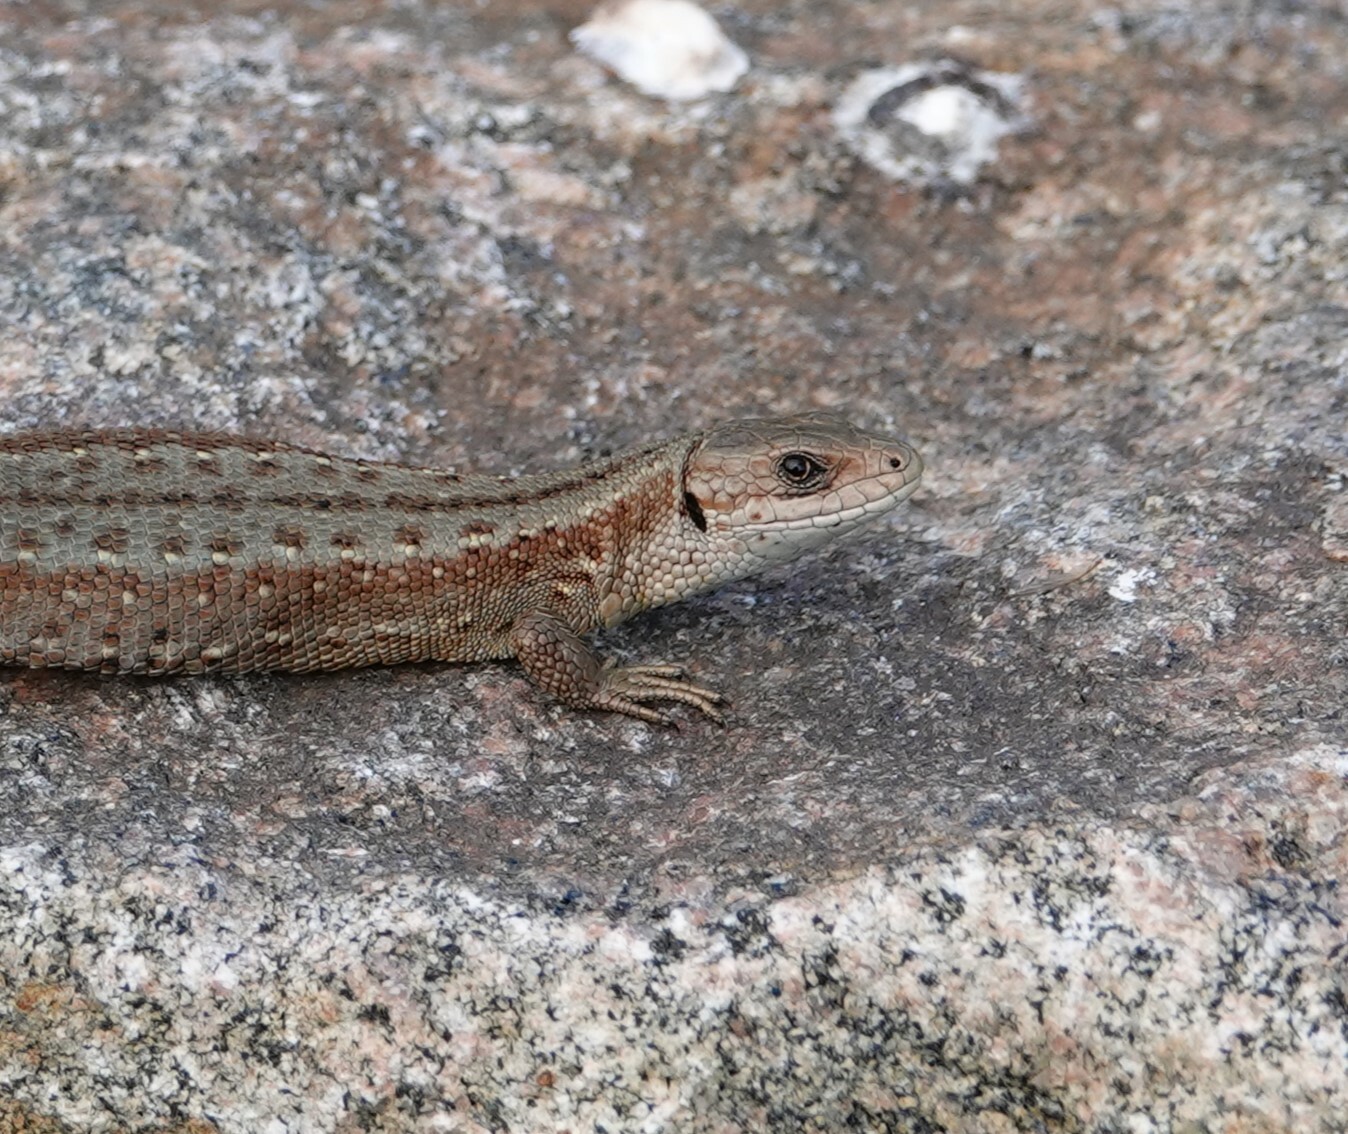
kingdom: Animalia
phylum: Chordata
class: Squamata
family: Lacertidae
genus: Zootoca
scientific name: Zootoca vivipara
